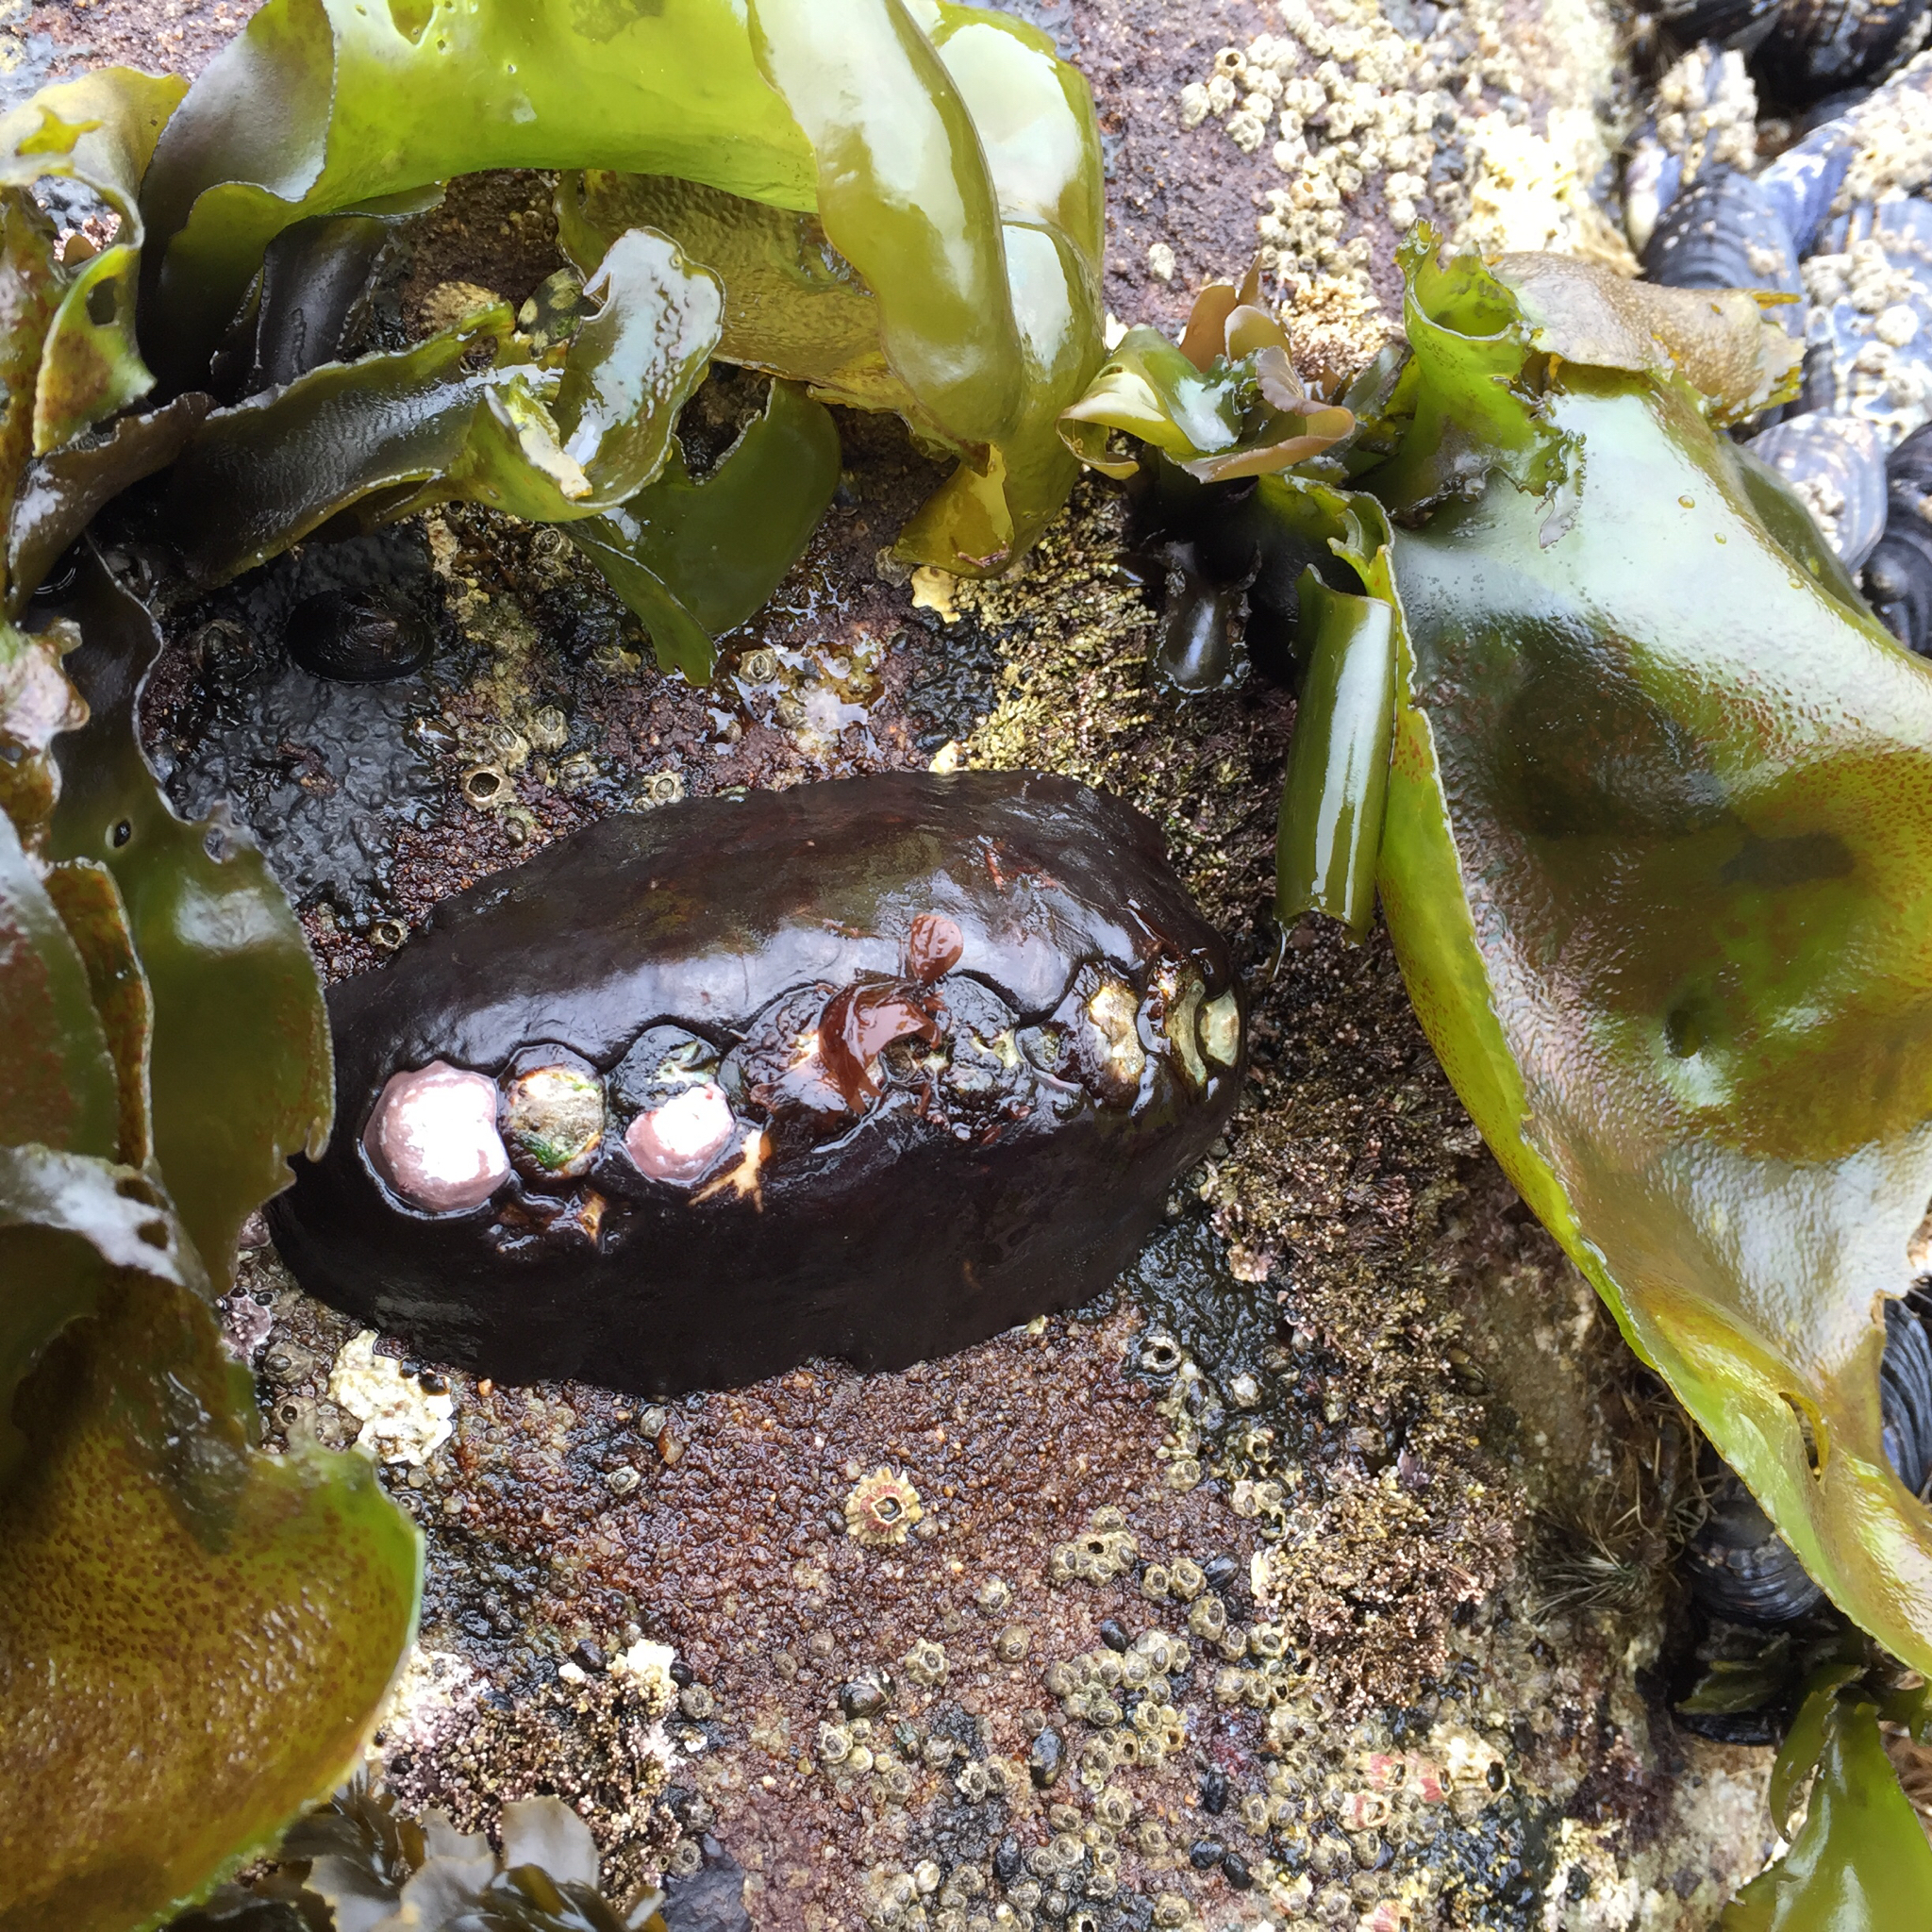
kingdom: Animalia
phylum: Mollusca
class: Polyplacophora
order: Chitonida
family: Mopaliidae
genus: Katharina
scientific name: Katharina tunicata
